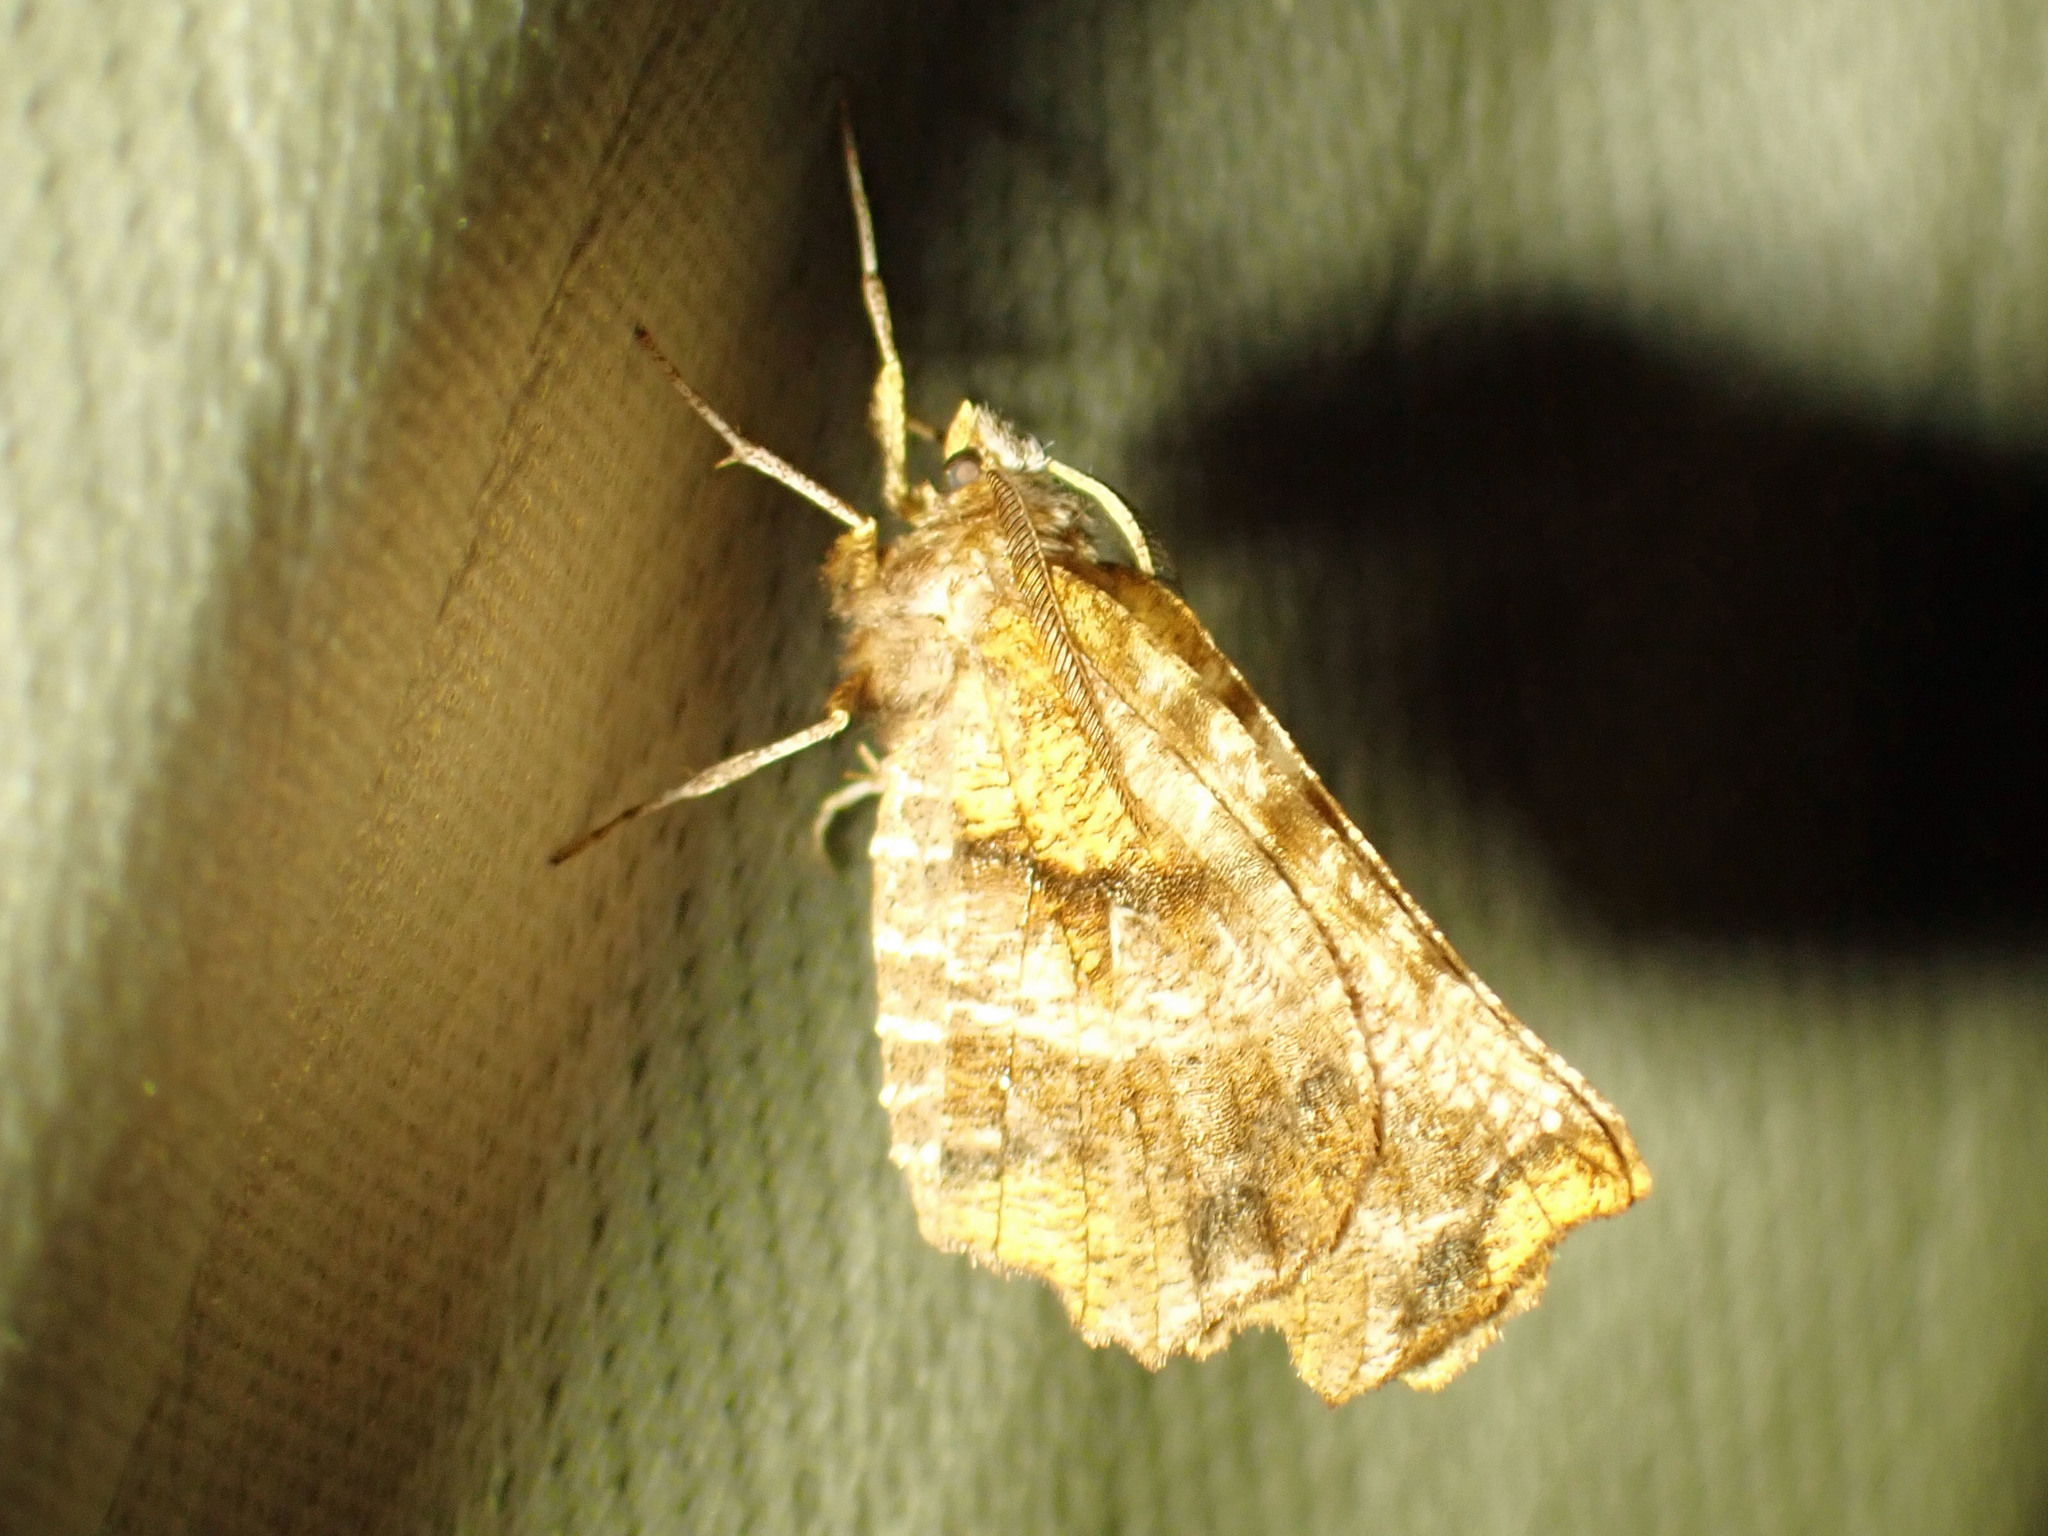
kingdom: Animalia
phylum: Arthropoda
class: Insecta
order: Lepidoptera
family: Geometridae
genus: Selenia
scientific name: Selenia alciphearia
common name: Brown-tipped thorn
